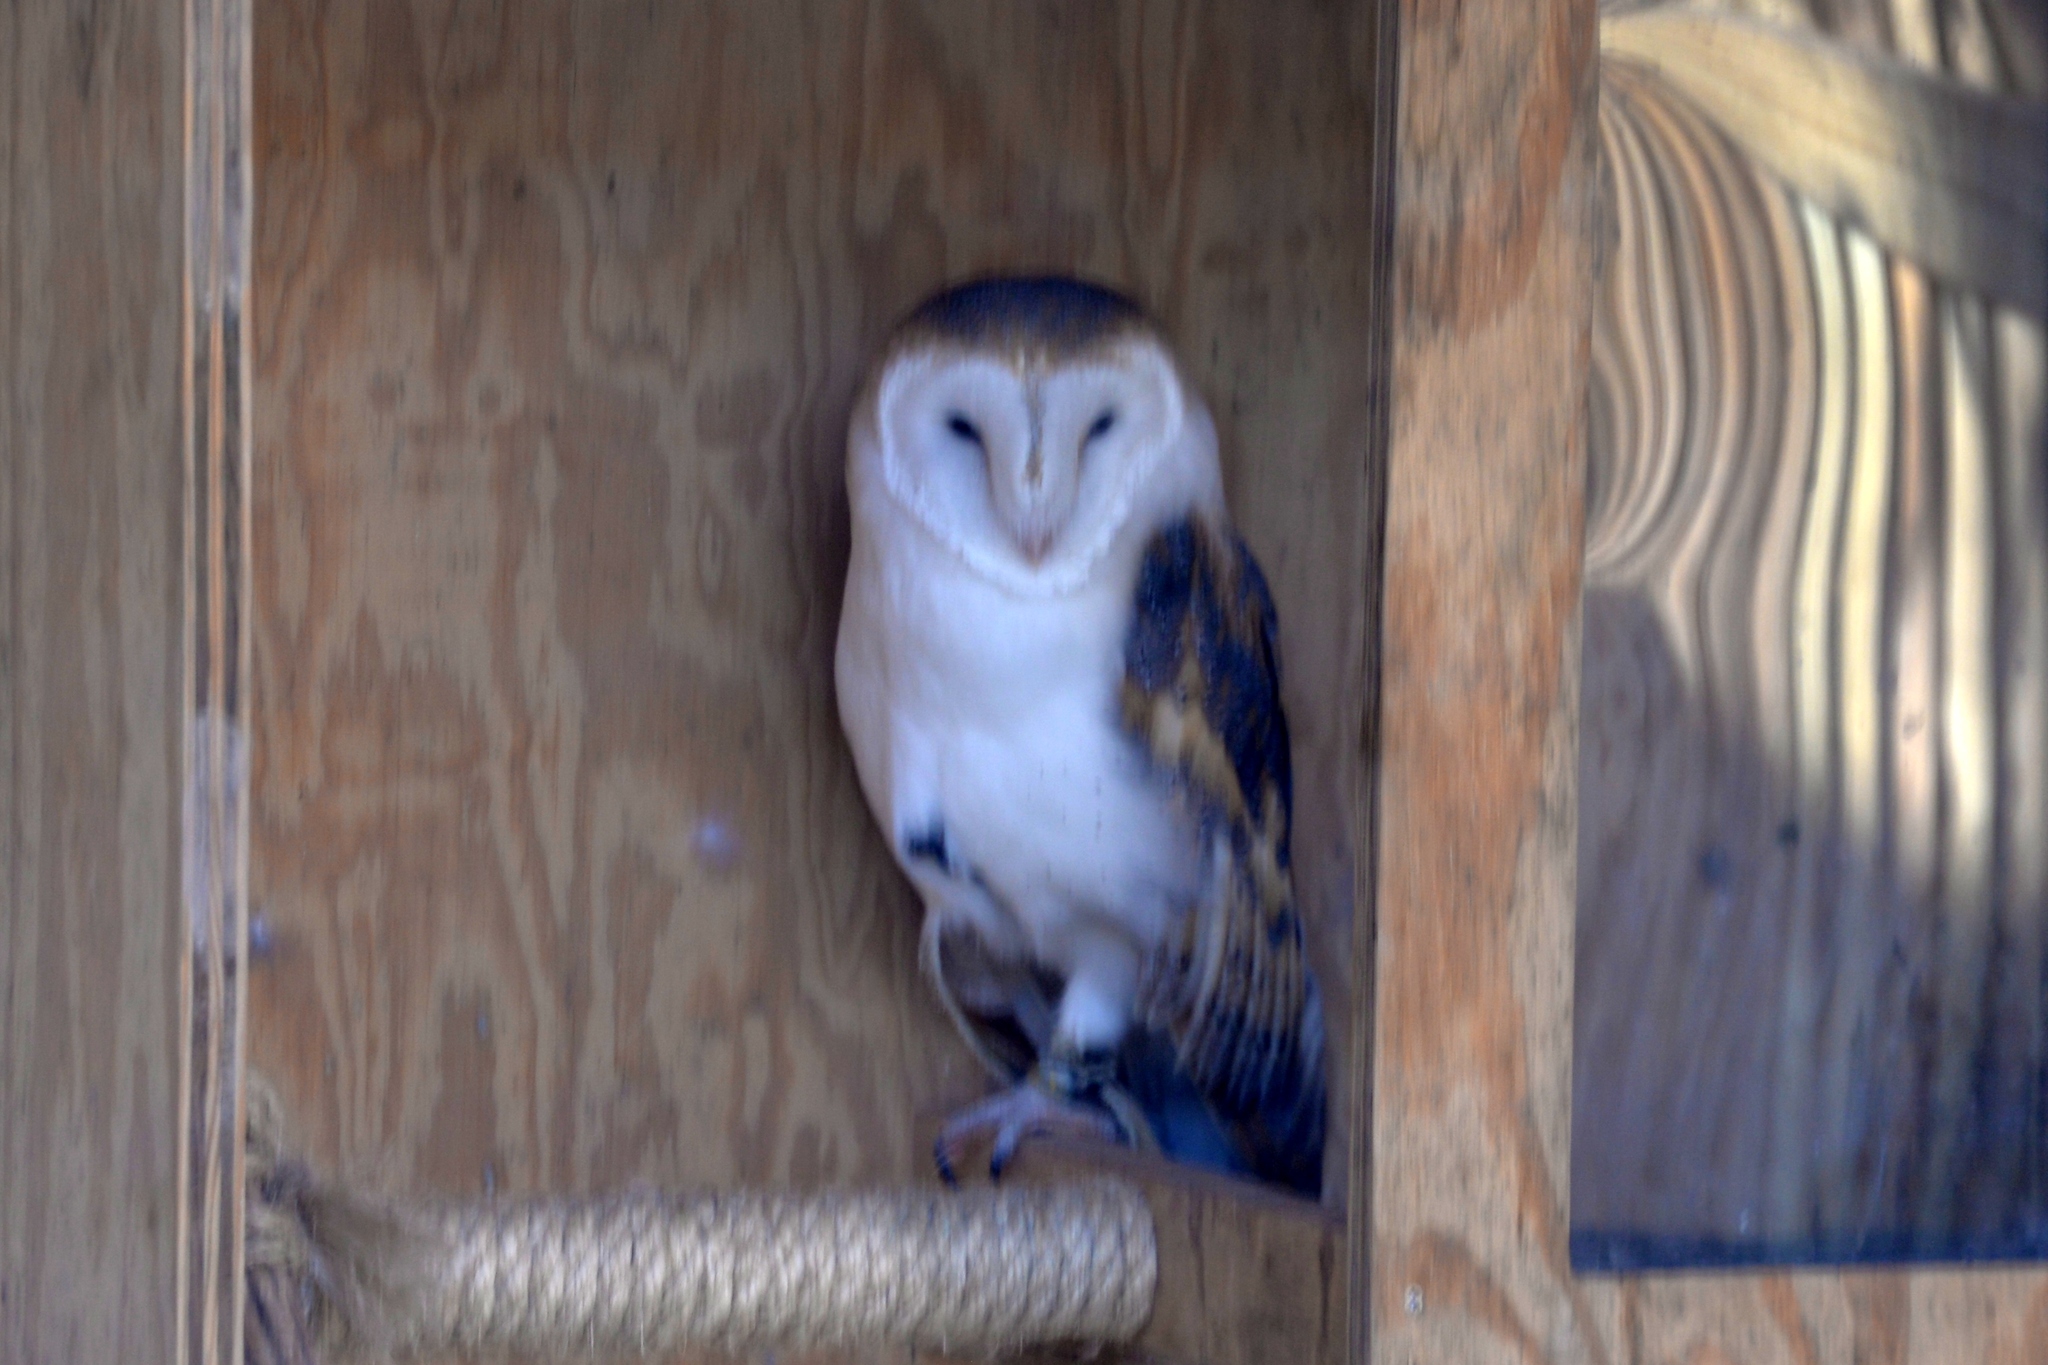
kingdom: Animalia
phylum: Chordata
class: Aves
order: Strigiformes
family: Tytonidae
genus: Tyto
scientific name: Tyto alba
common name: Barn owl
